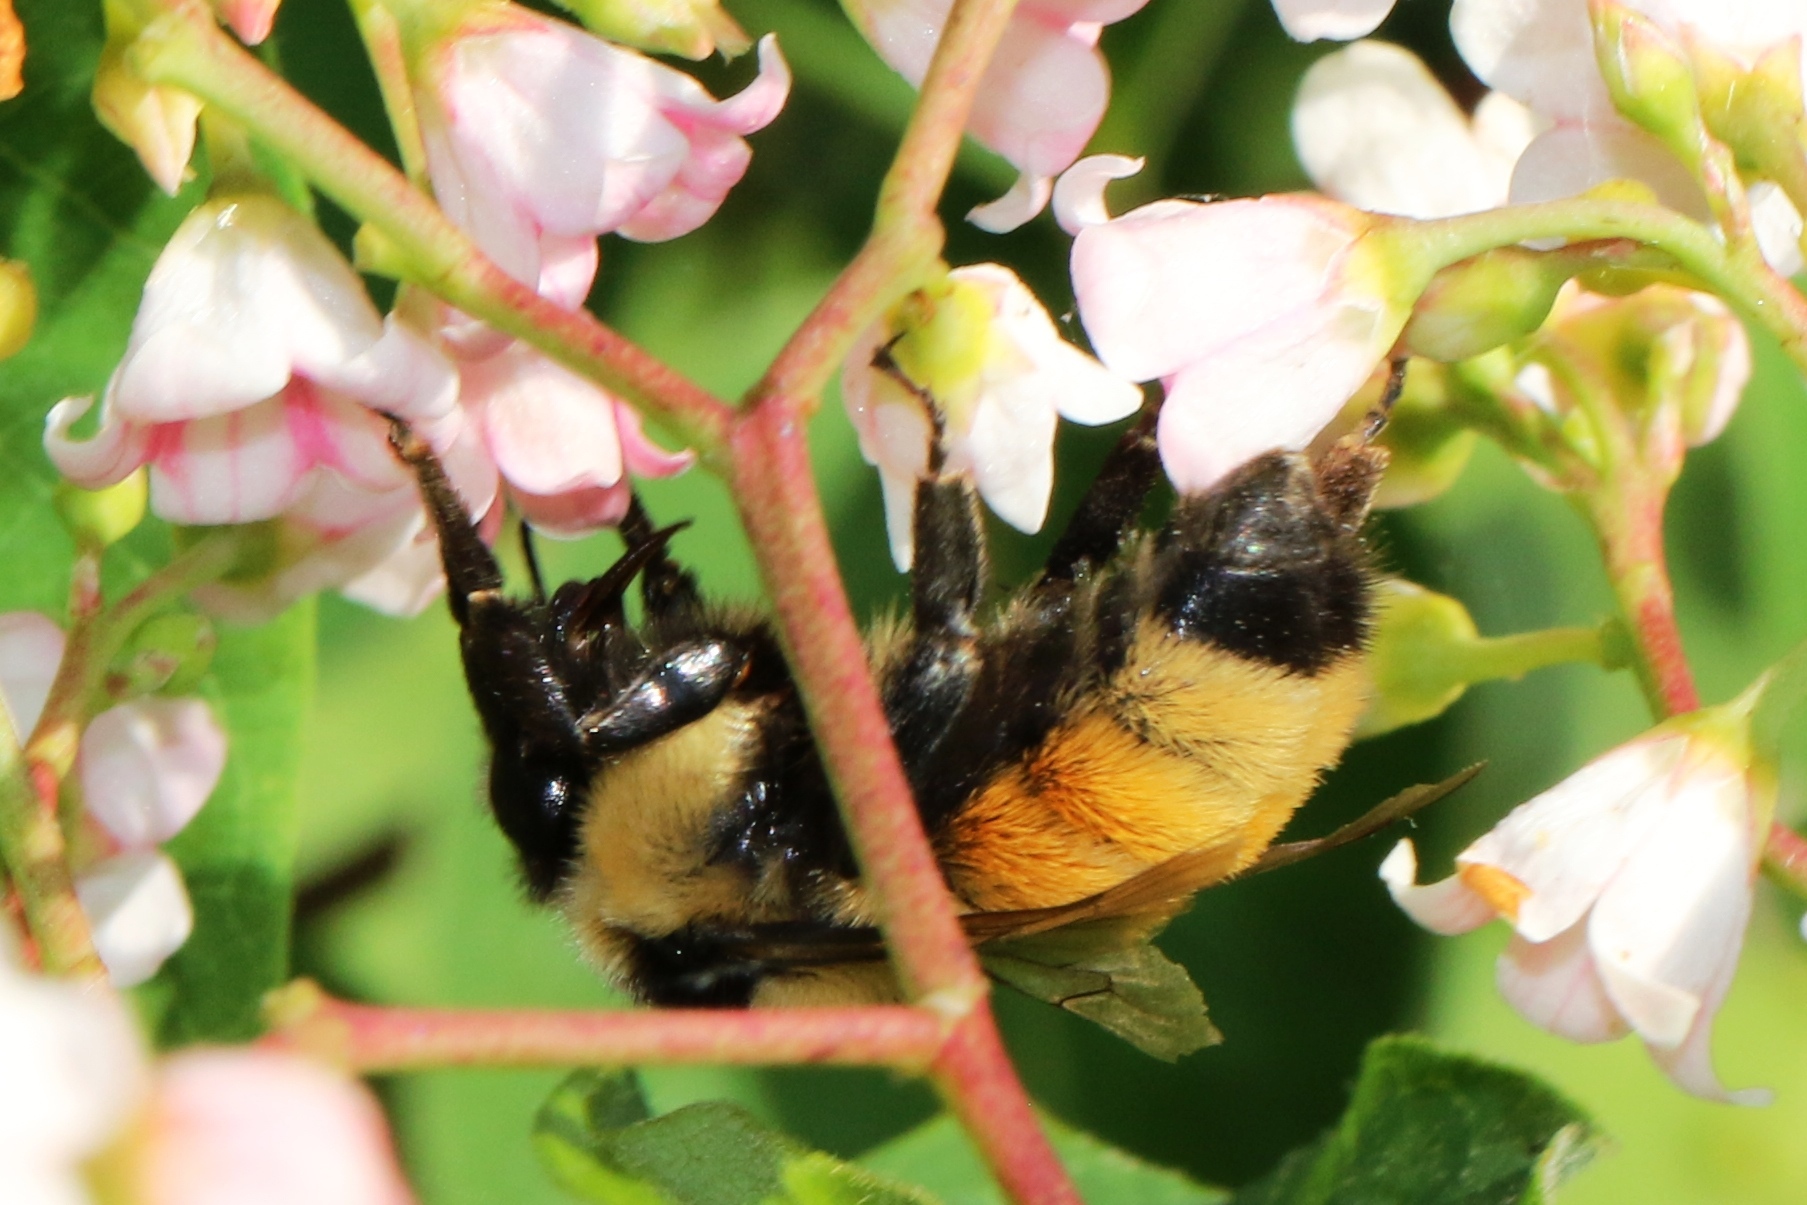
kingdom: Animalia
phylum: Arthropoda
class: Insecta
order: Hymenoptera
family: Apidae
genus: Bombus
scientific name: Bombus ternarius
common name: Tri-colored bumble bee
